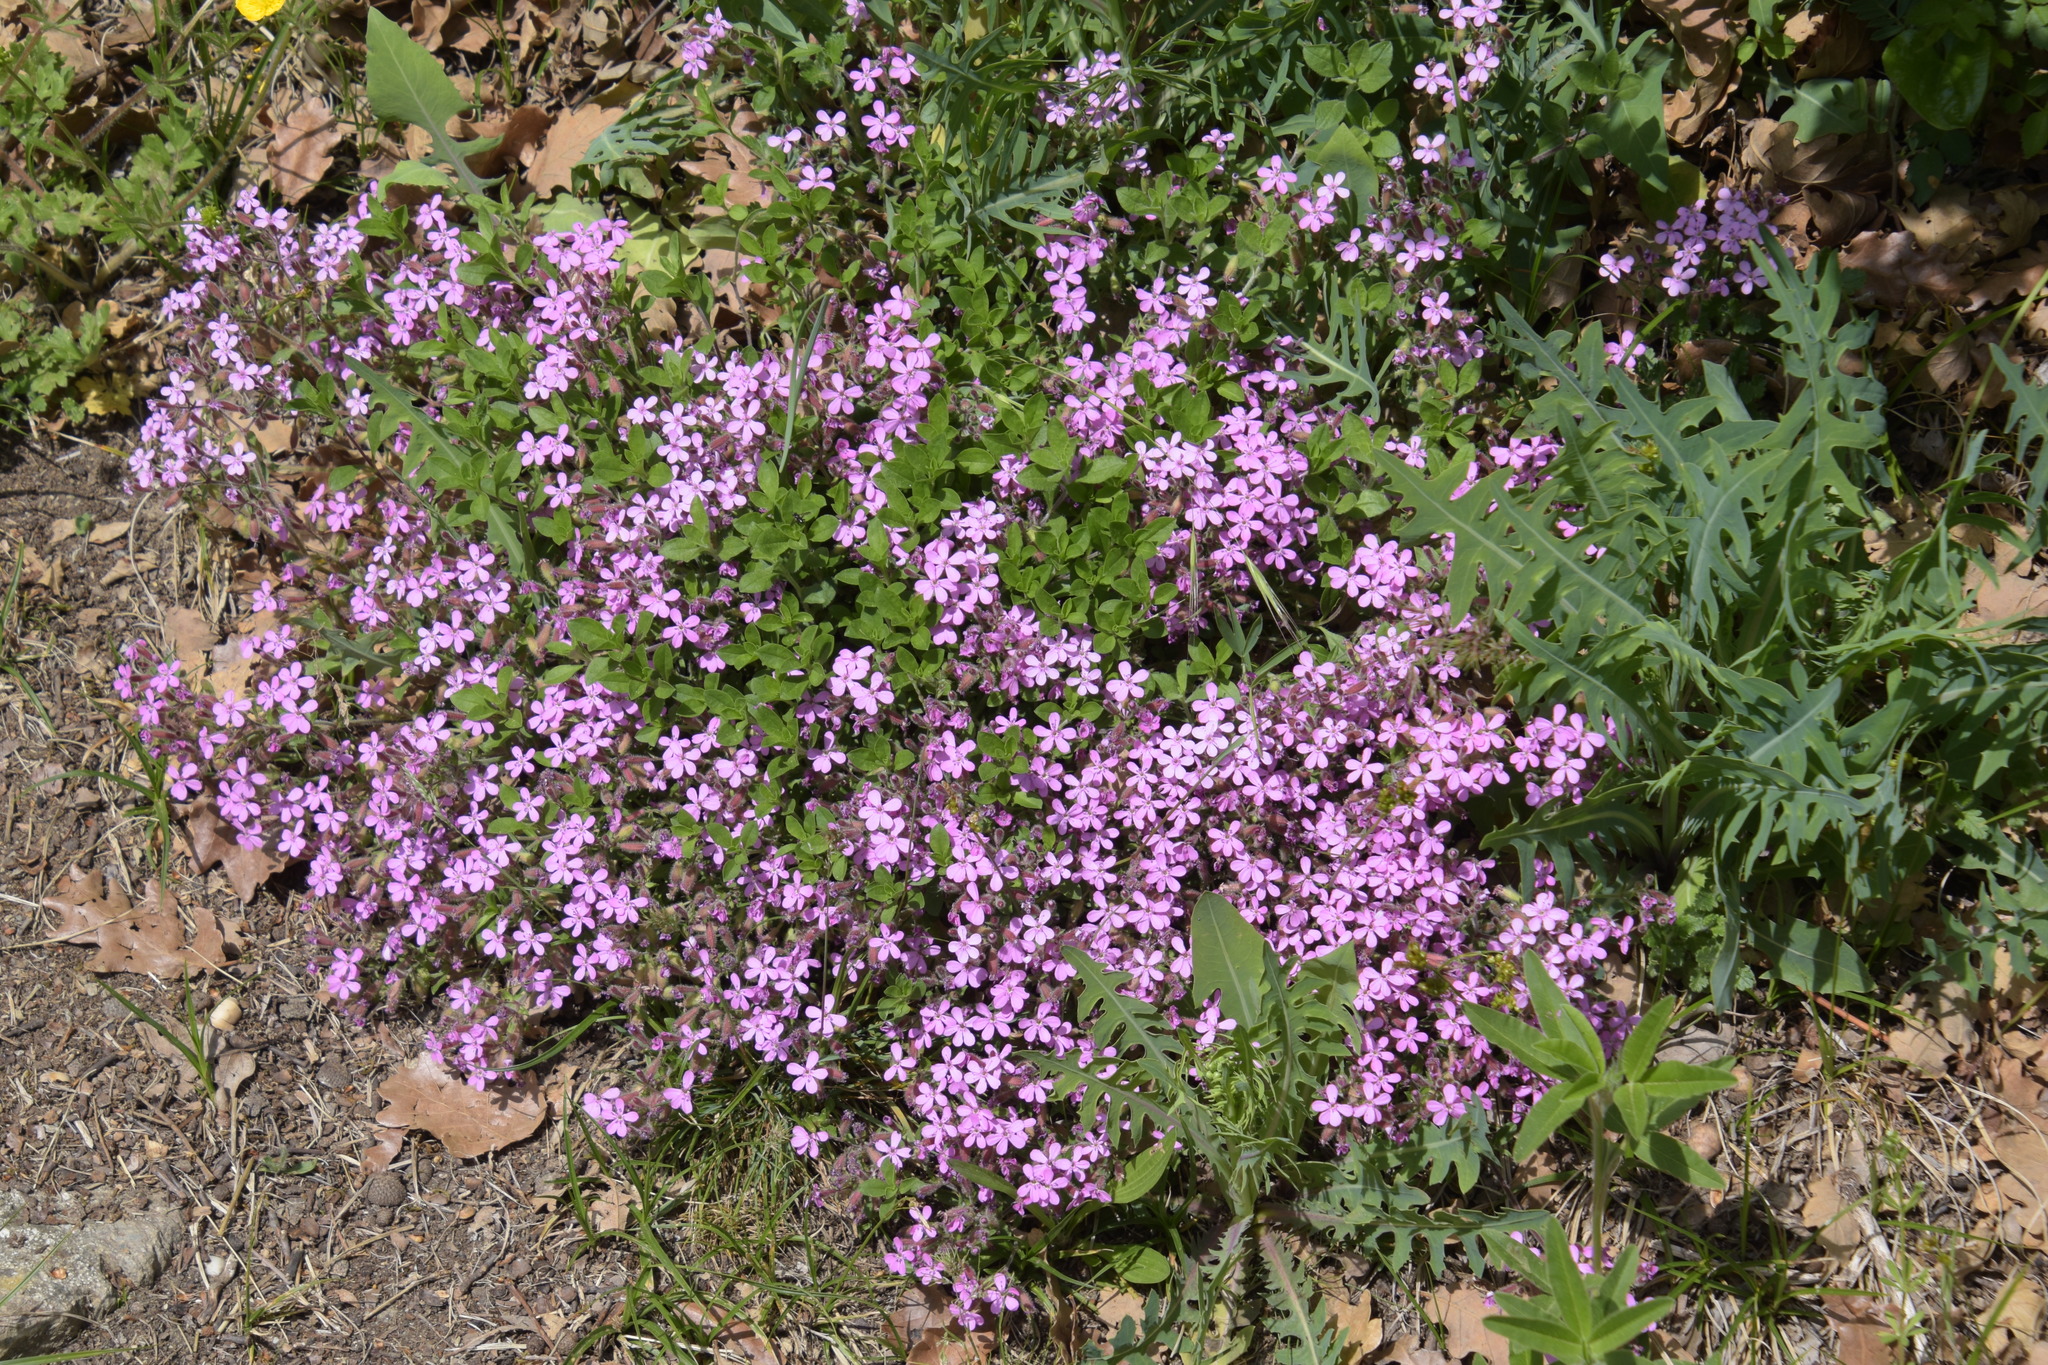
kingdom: Plantae
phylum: Tracheophyta
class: Magnoliopsida
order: Caryophyllales
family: Caryophyllaceae
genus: Saponaria
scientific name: Saponaria ocymoides
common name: Rock soapwort
